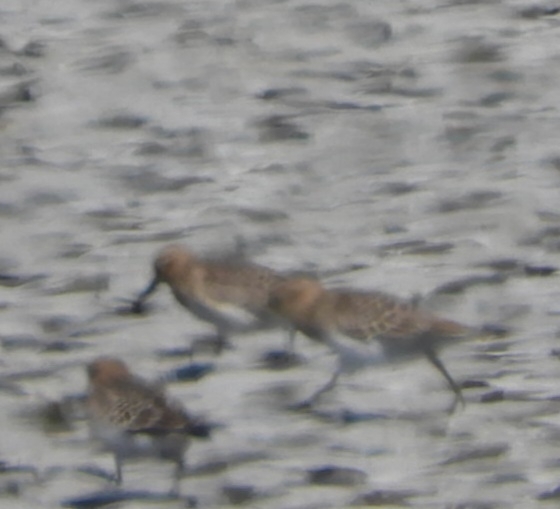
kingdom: Animalia
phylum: Chordata
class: Aves
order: Charadriiformes
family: Scolopacidae
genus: Calidris
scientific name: Calidris bairdii
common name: Baird's sandpiper
